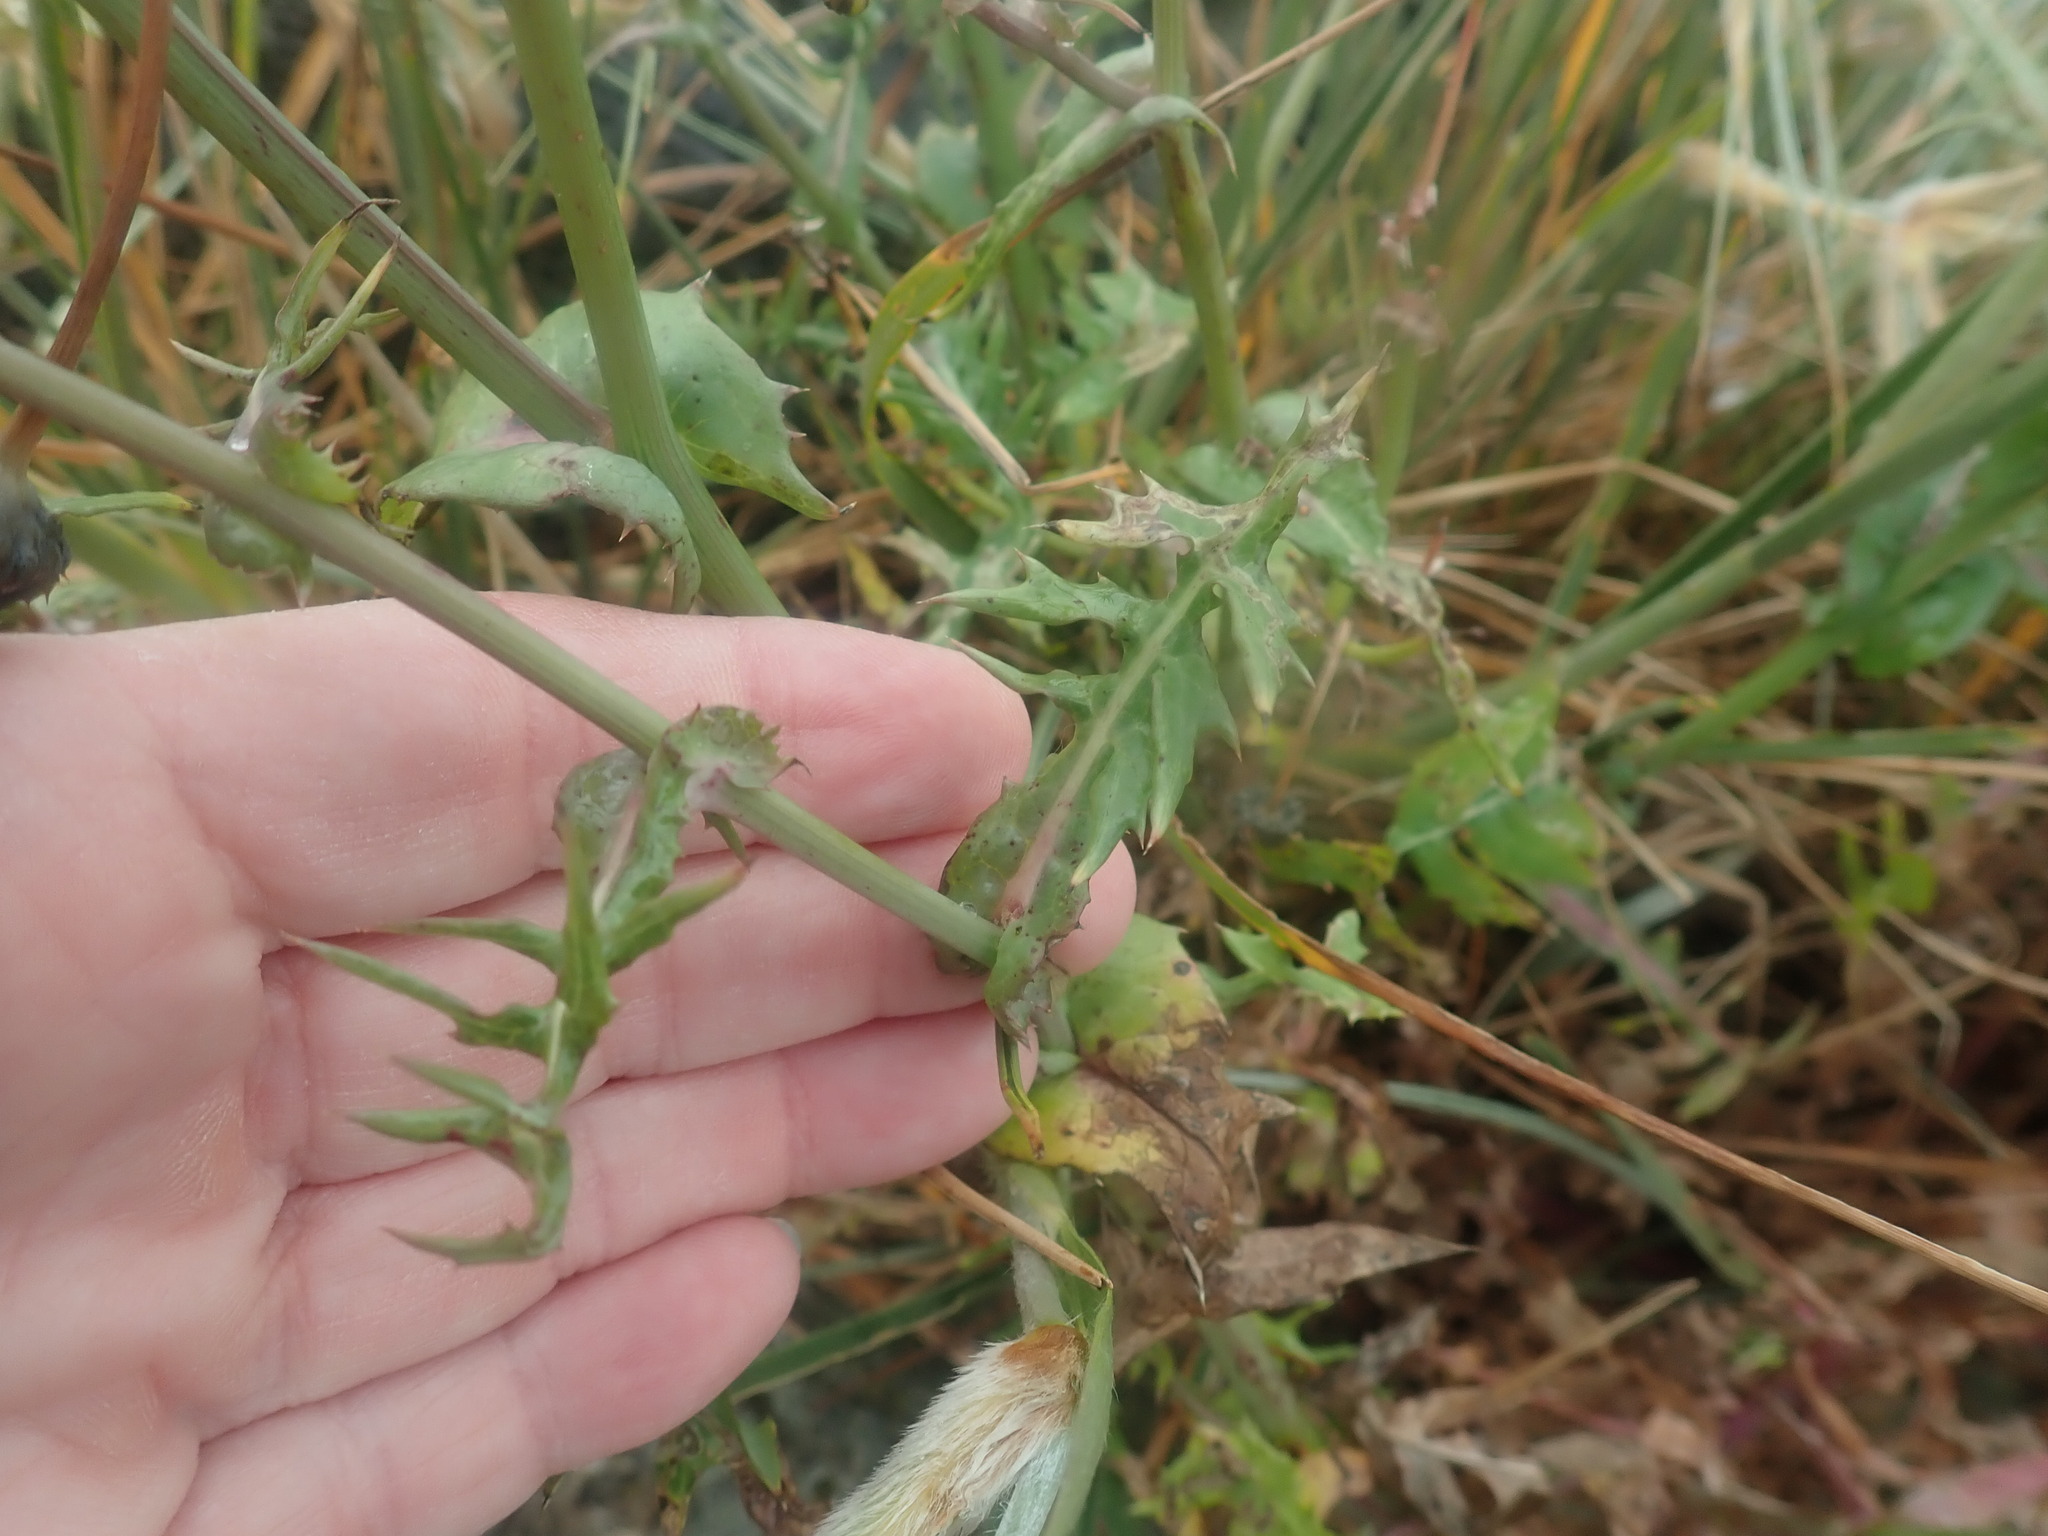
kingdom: Plantae
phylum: Tracheophyta
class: Magnoliopsida
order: Asterales
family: Asteraceae
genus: Sonchus
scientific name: Sonchus oleraceus
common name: Common sowthistle
